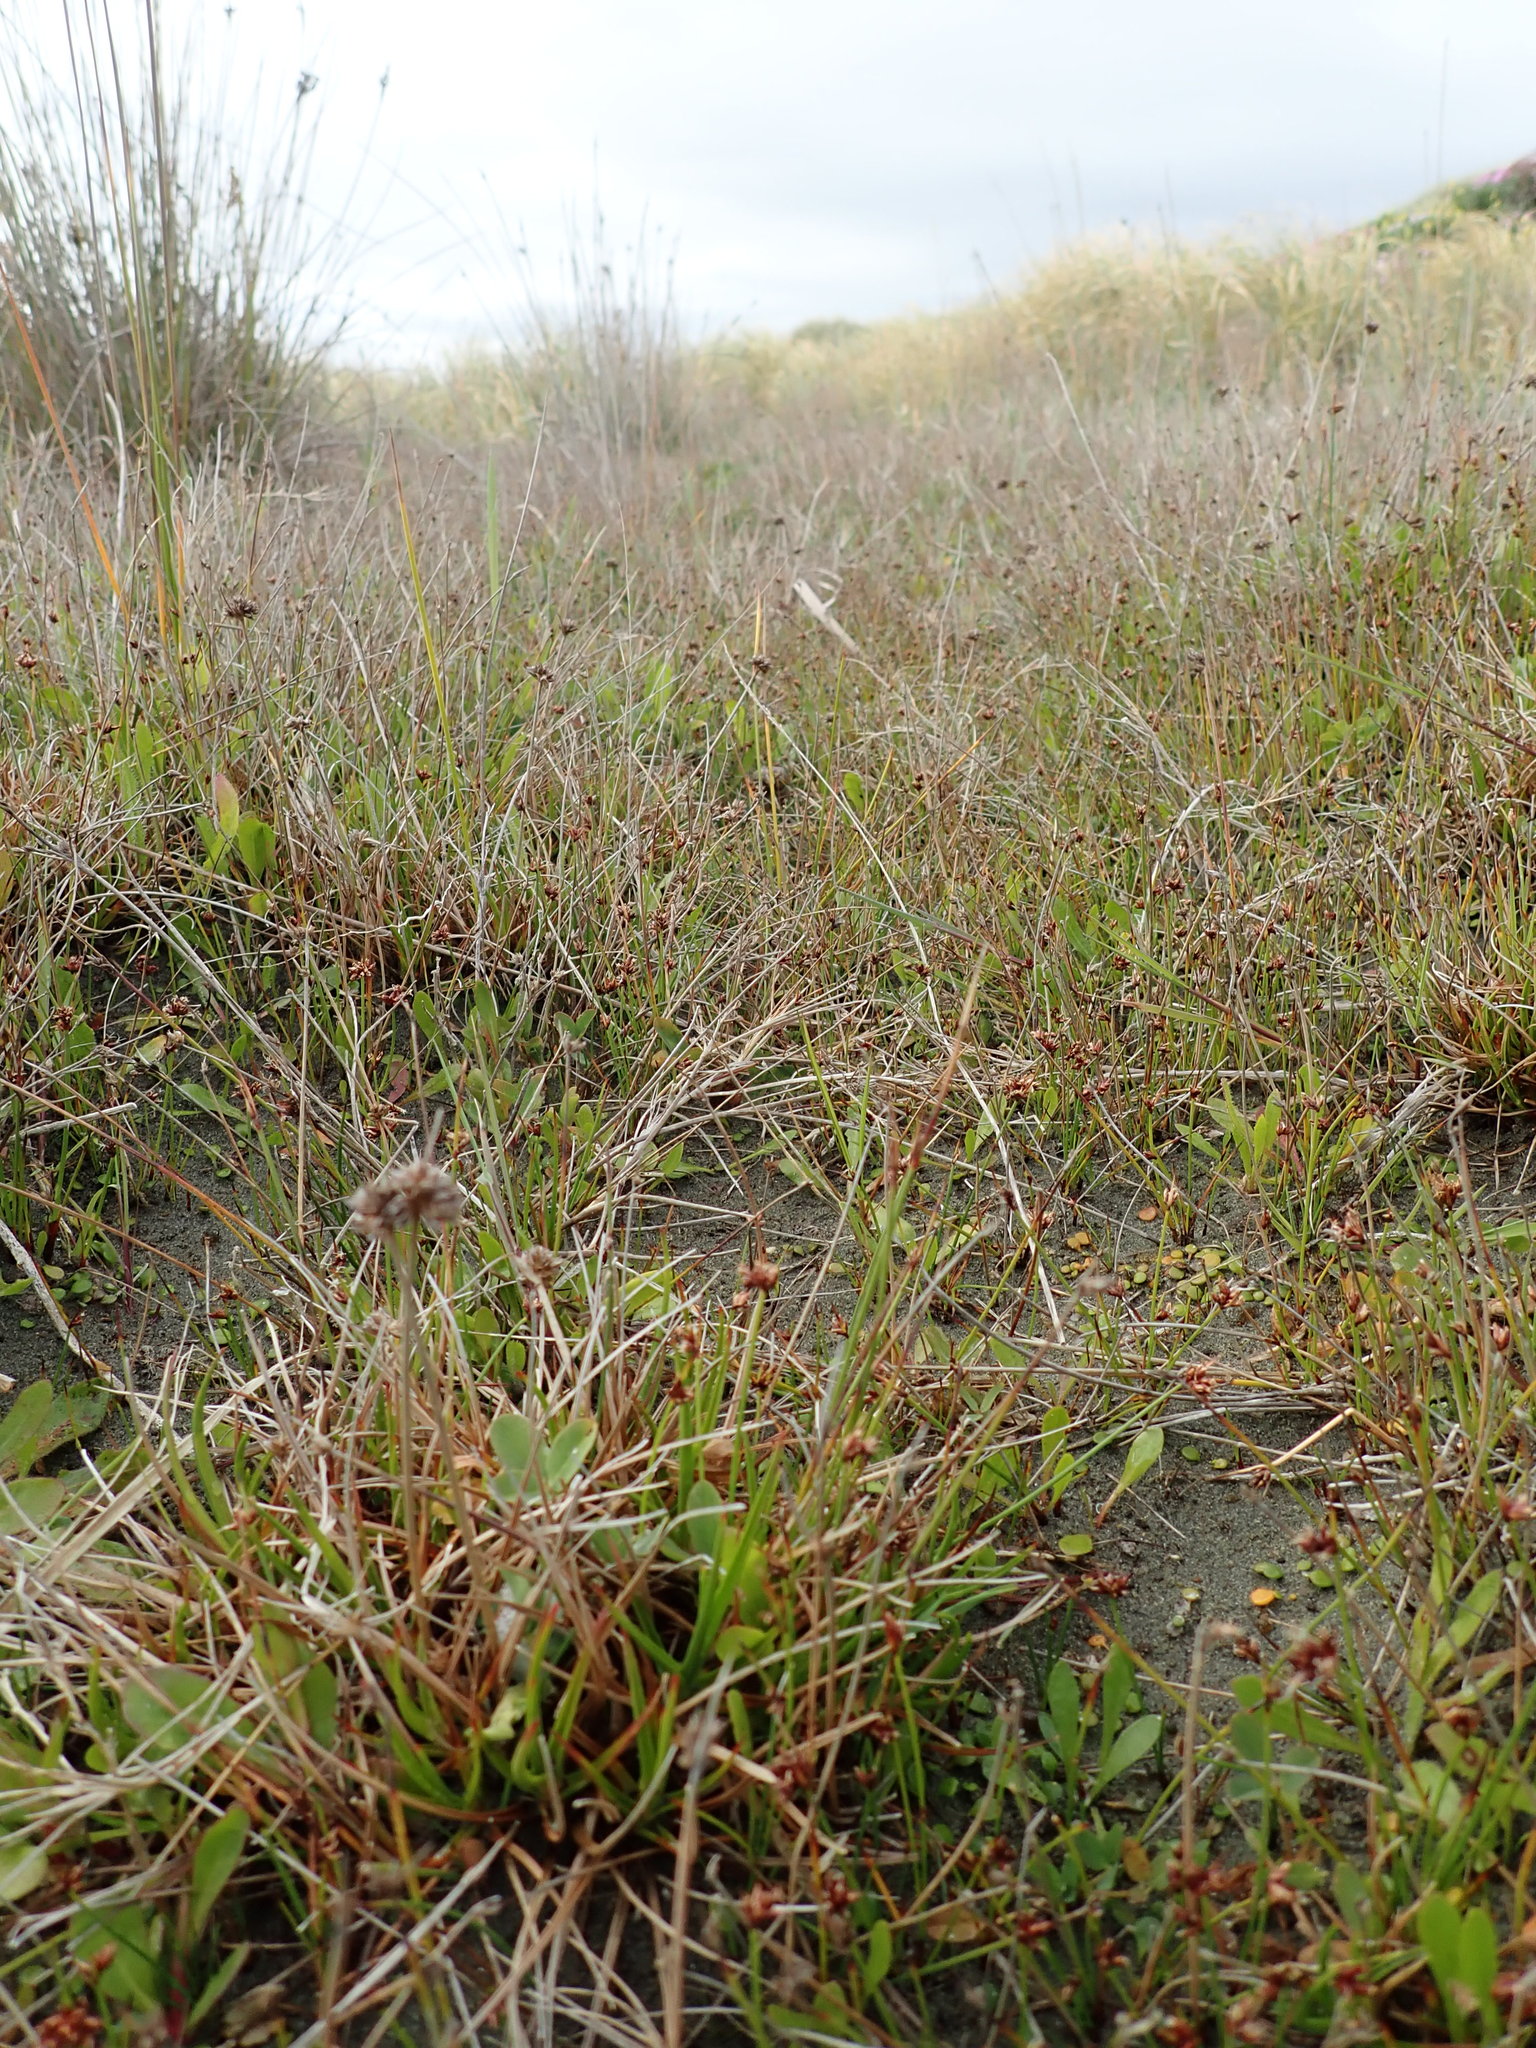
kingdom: Plantae
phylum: Tracheophyta
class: Liliopsida
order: Poales
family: Juncaceae
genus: Juncus
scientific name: Juncus caespiticius
